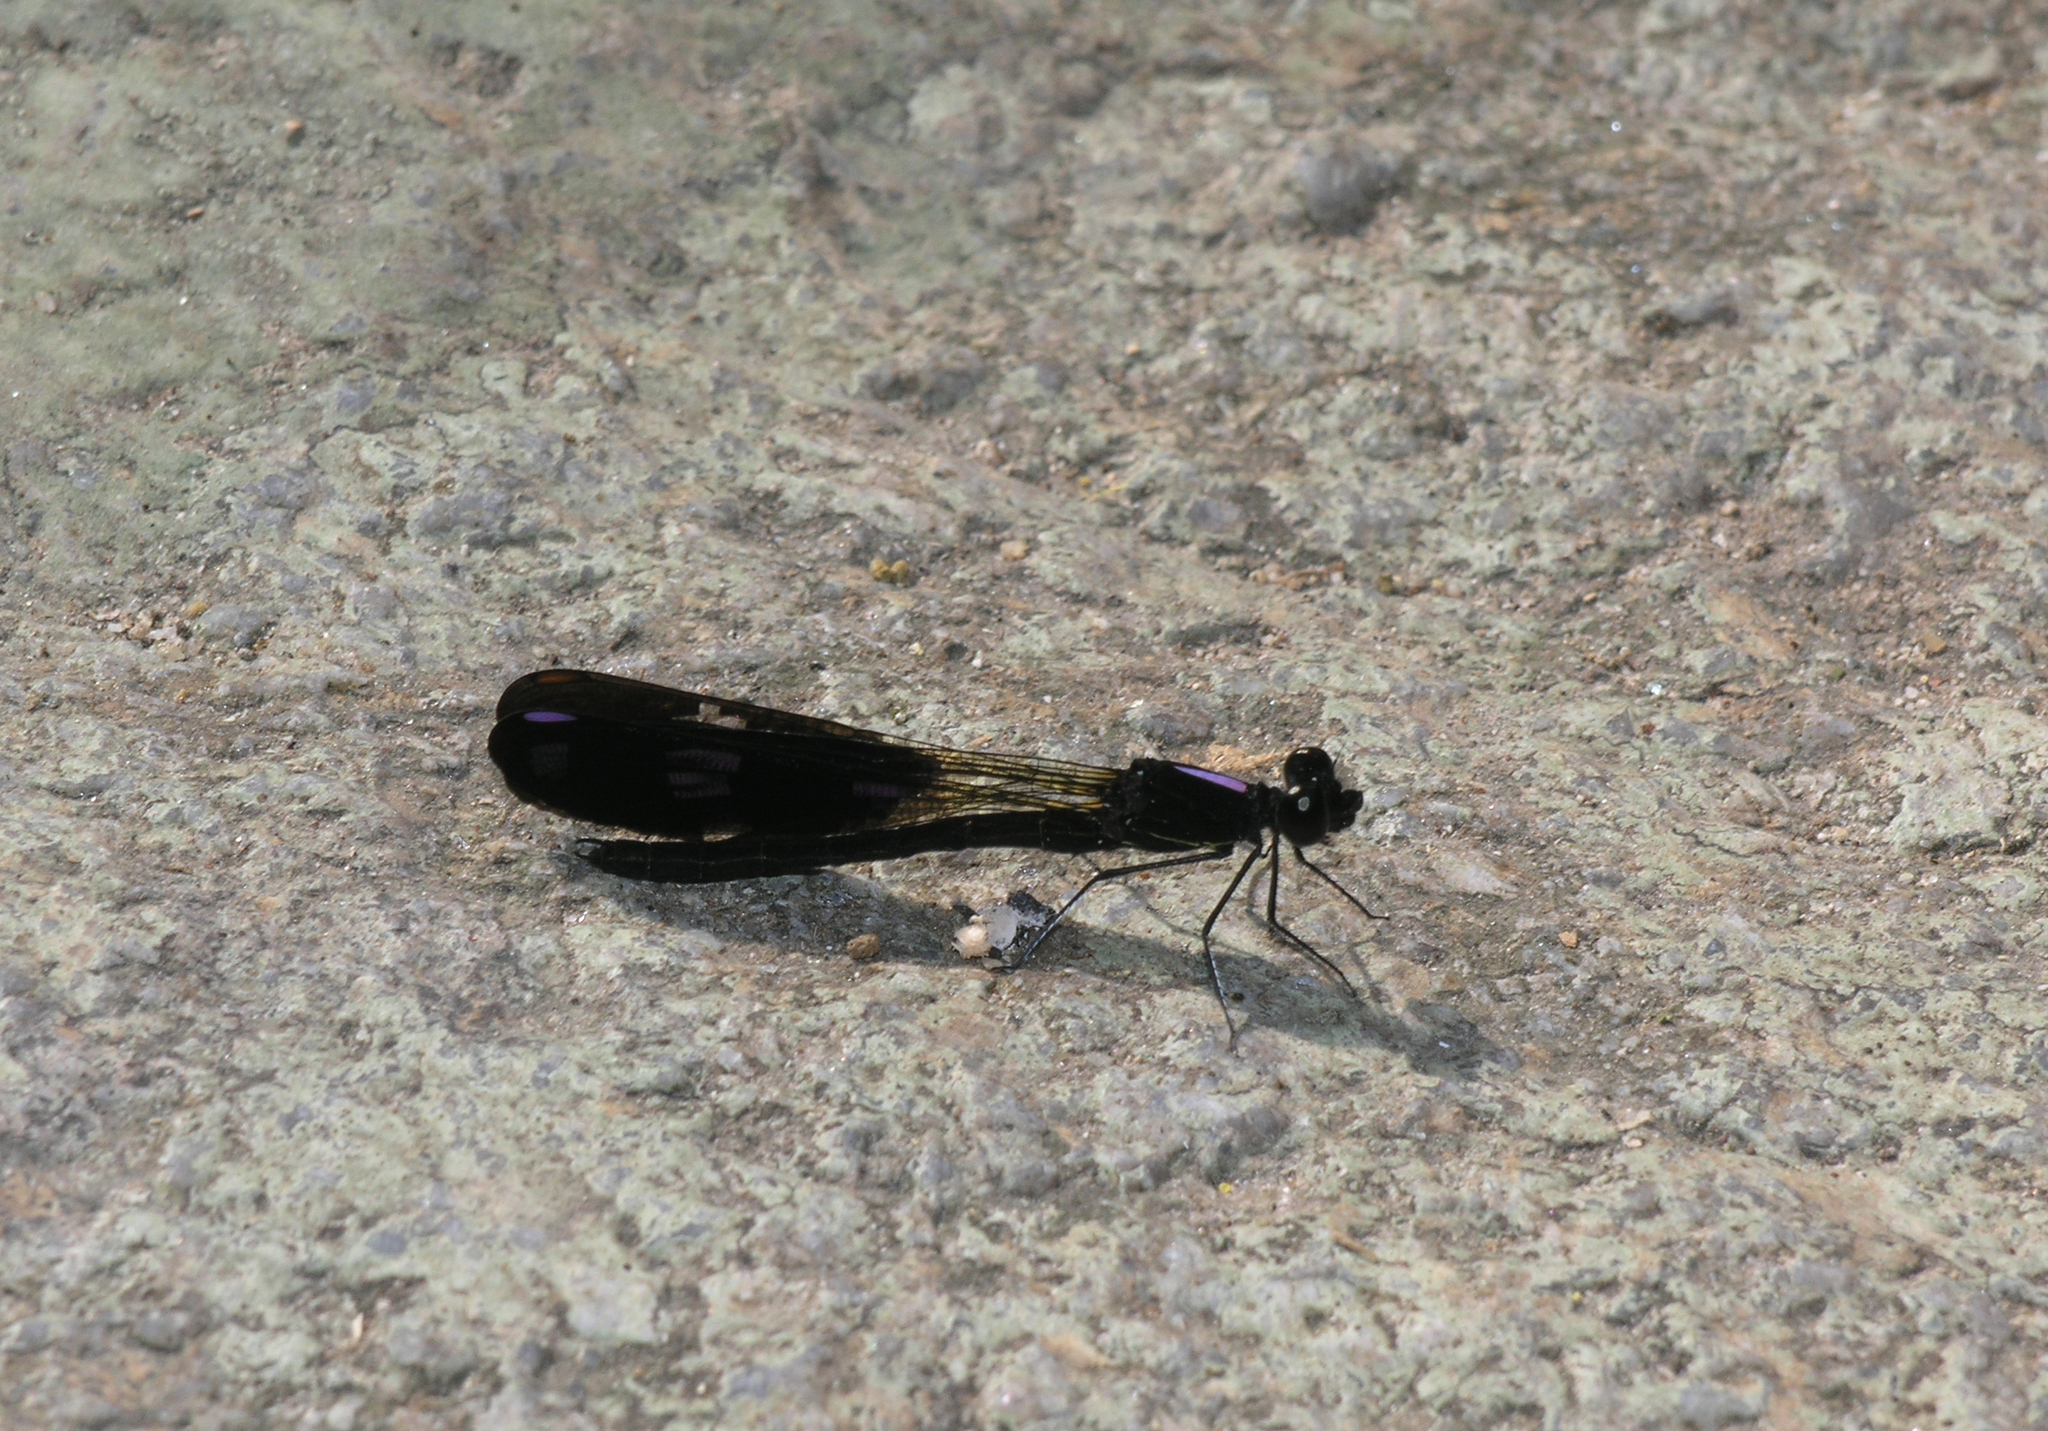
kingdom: Animalia
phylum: Arthropoda
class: Insecta
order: Odonata
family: Chlorocyphidae
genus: Aristocypha
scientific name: Aristocypha fenestrella
